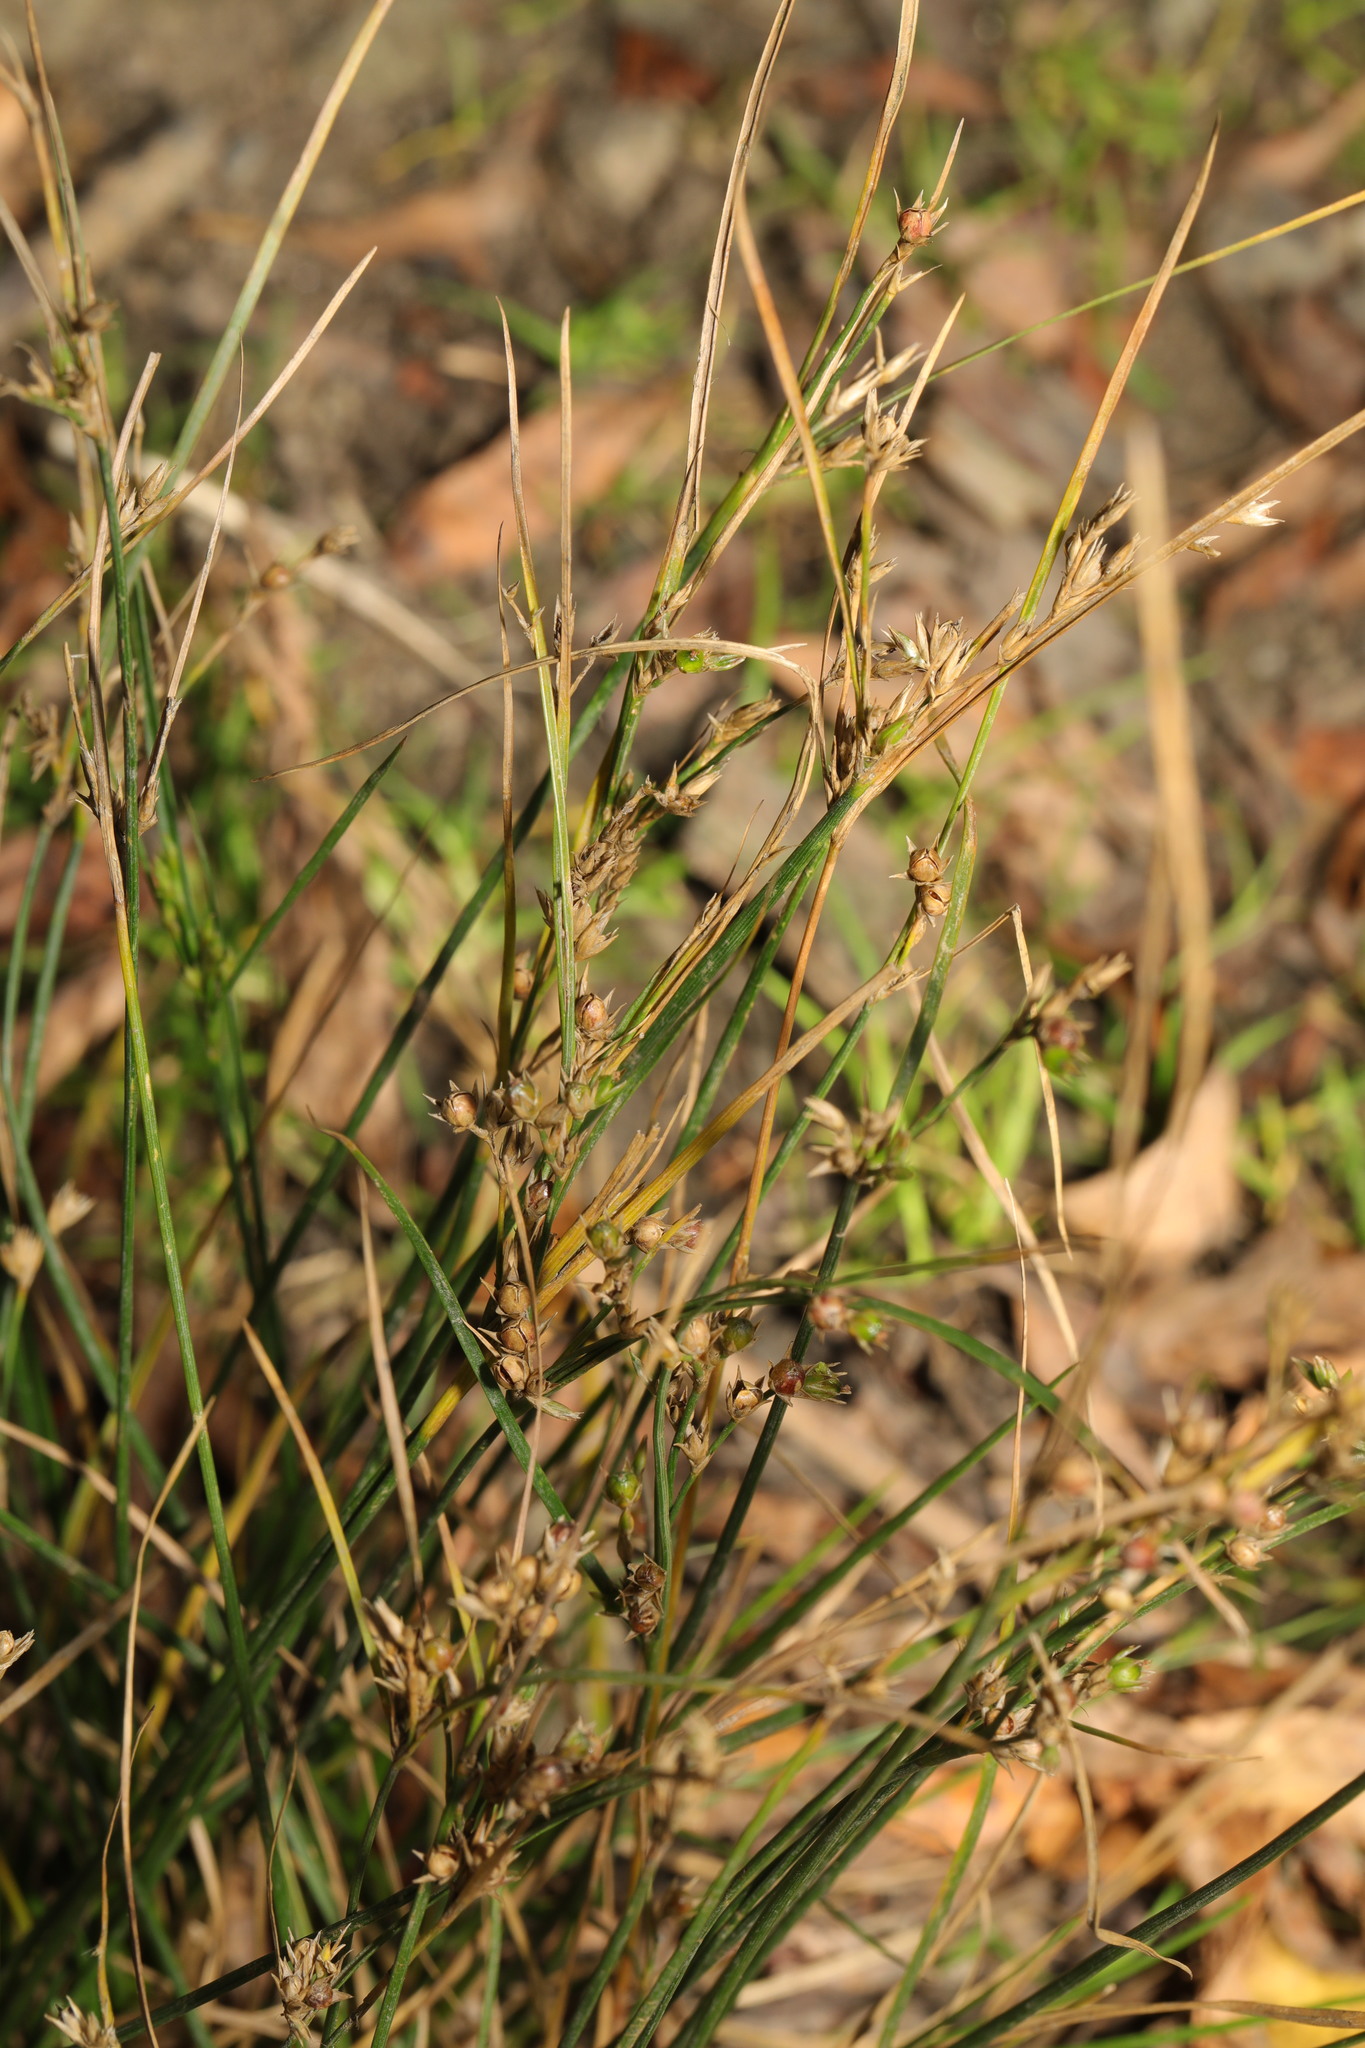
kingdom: Plantae
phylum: Tracheophyta
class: Liliopsida
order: Poales
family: Juncaceae
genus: Juncus
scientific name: Juncus tenuis
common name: Slender rush
